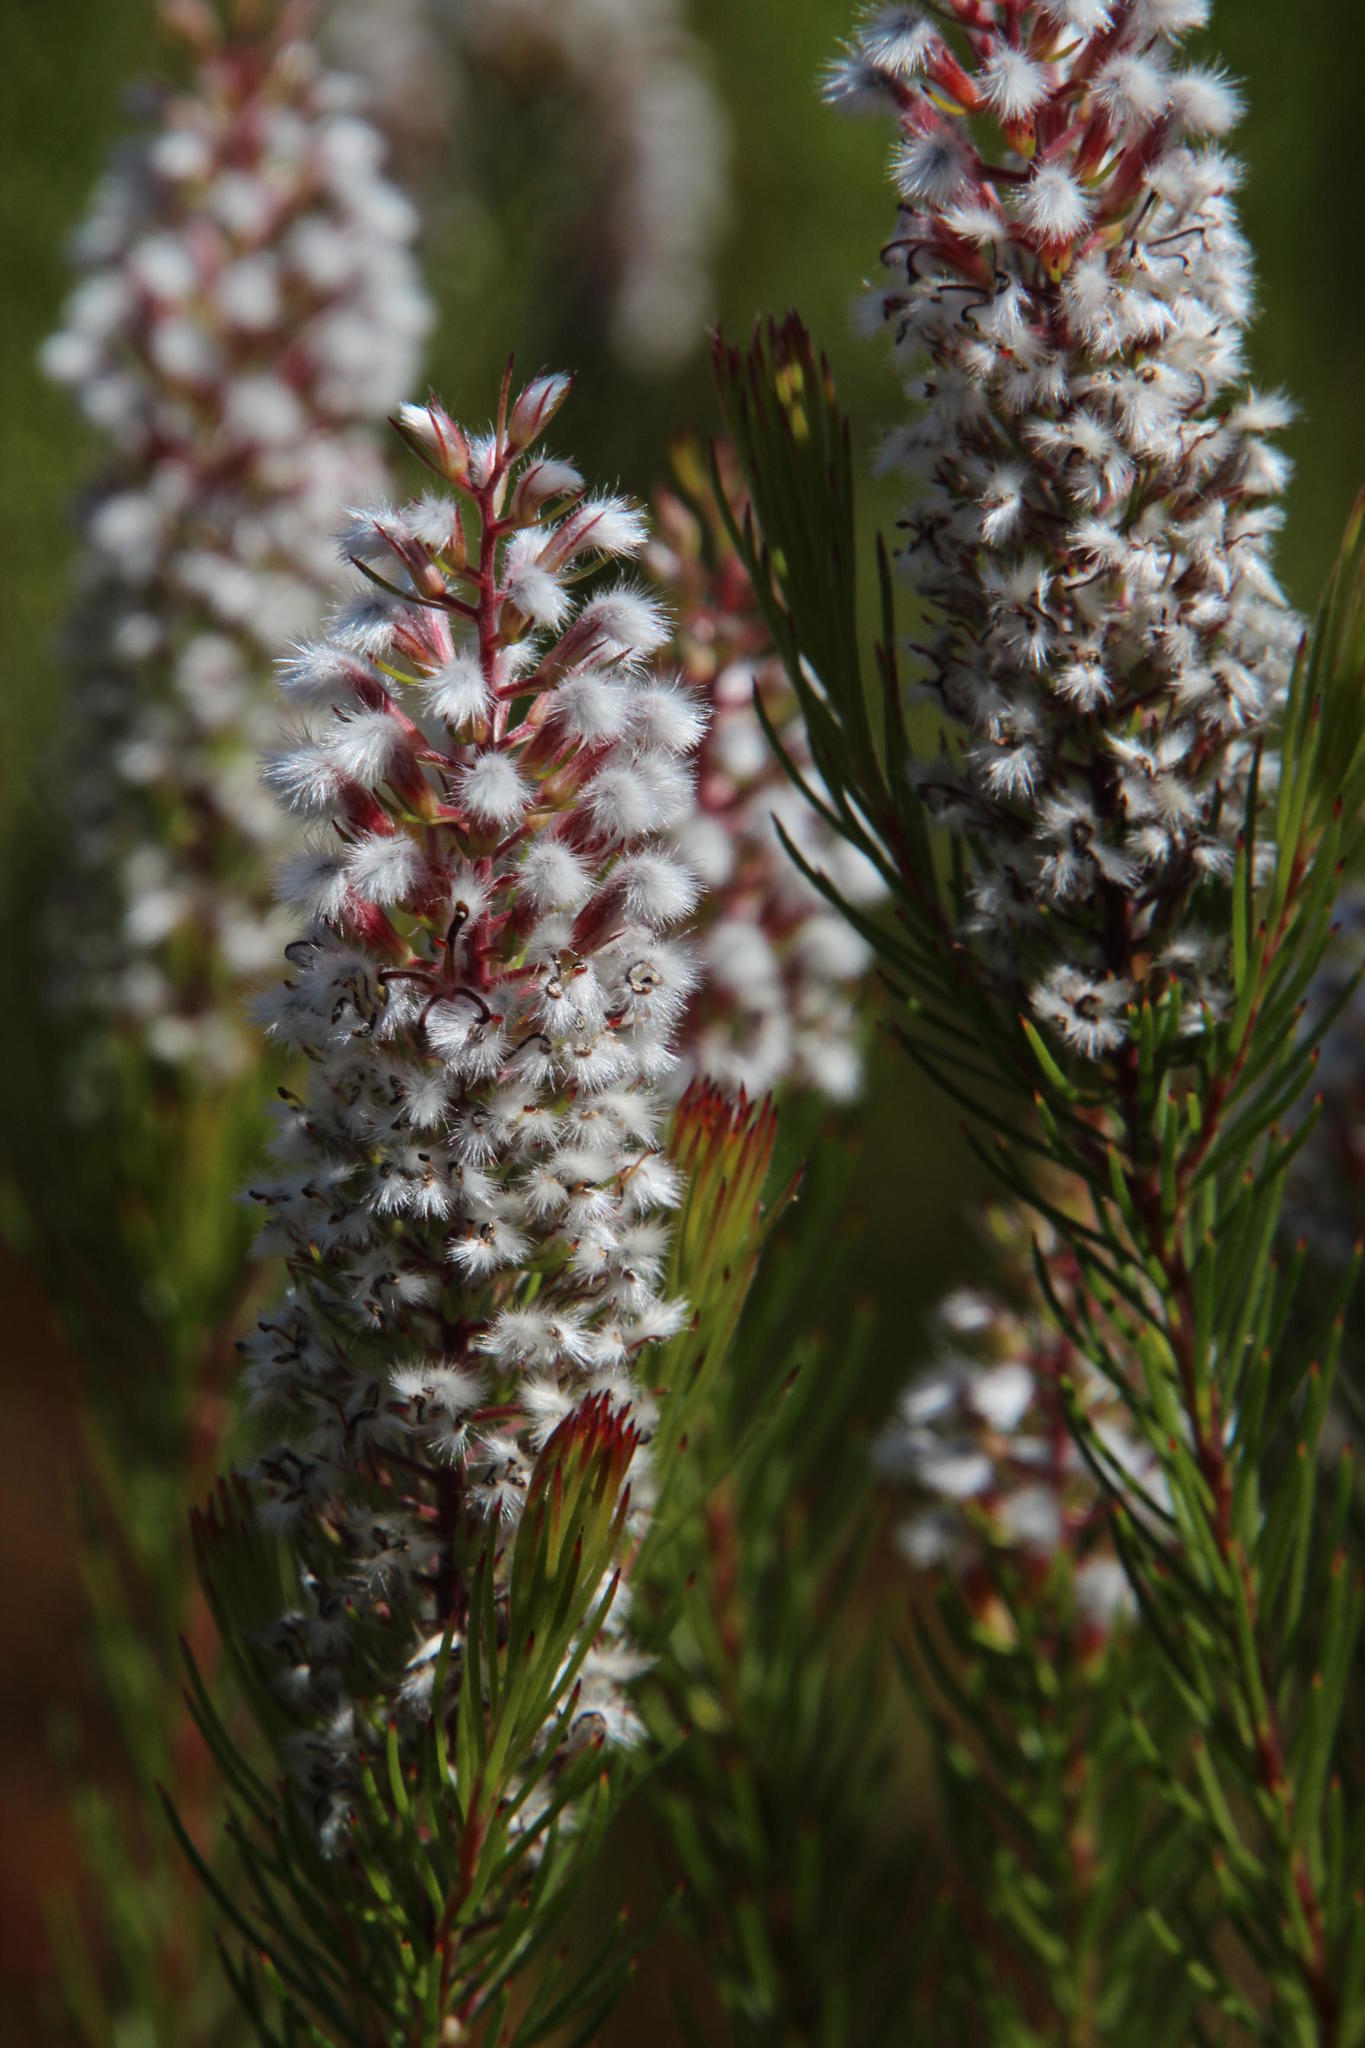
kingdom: Plantae
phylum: Tracheophyta
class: Magnoliopsida
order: Proteales
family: Proteaceae
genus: Spatalla
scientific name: Spatalla parilis
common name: Spike spoon
